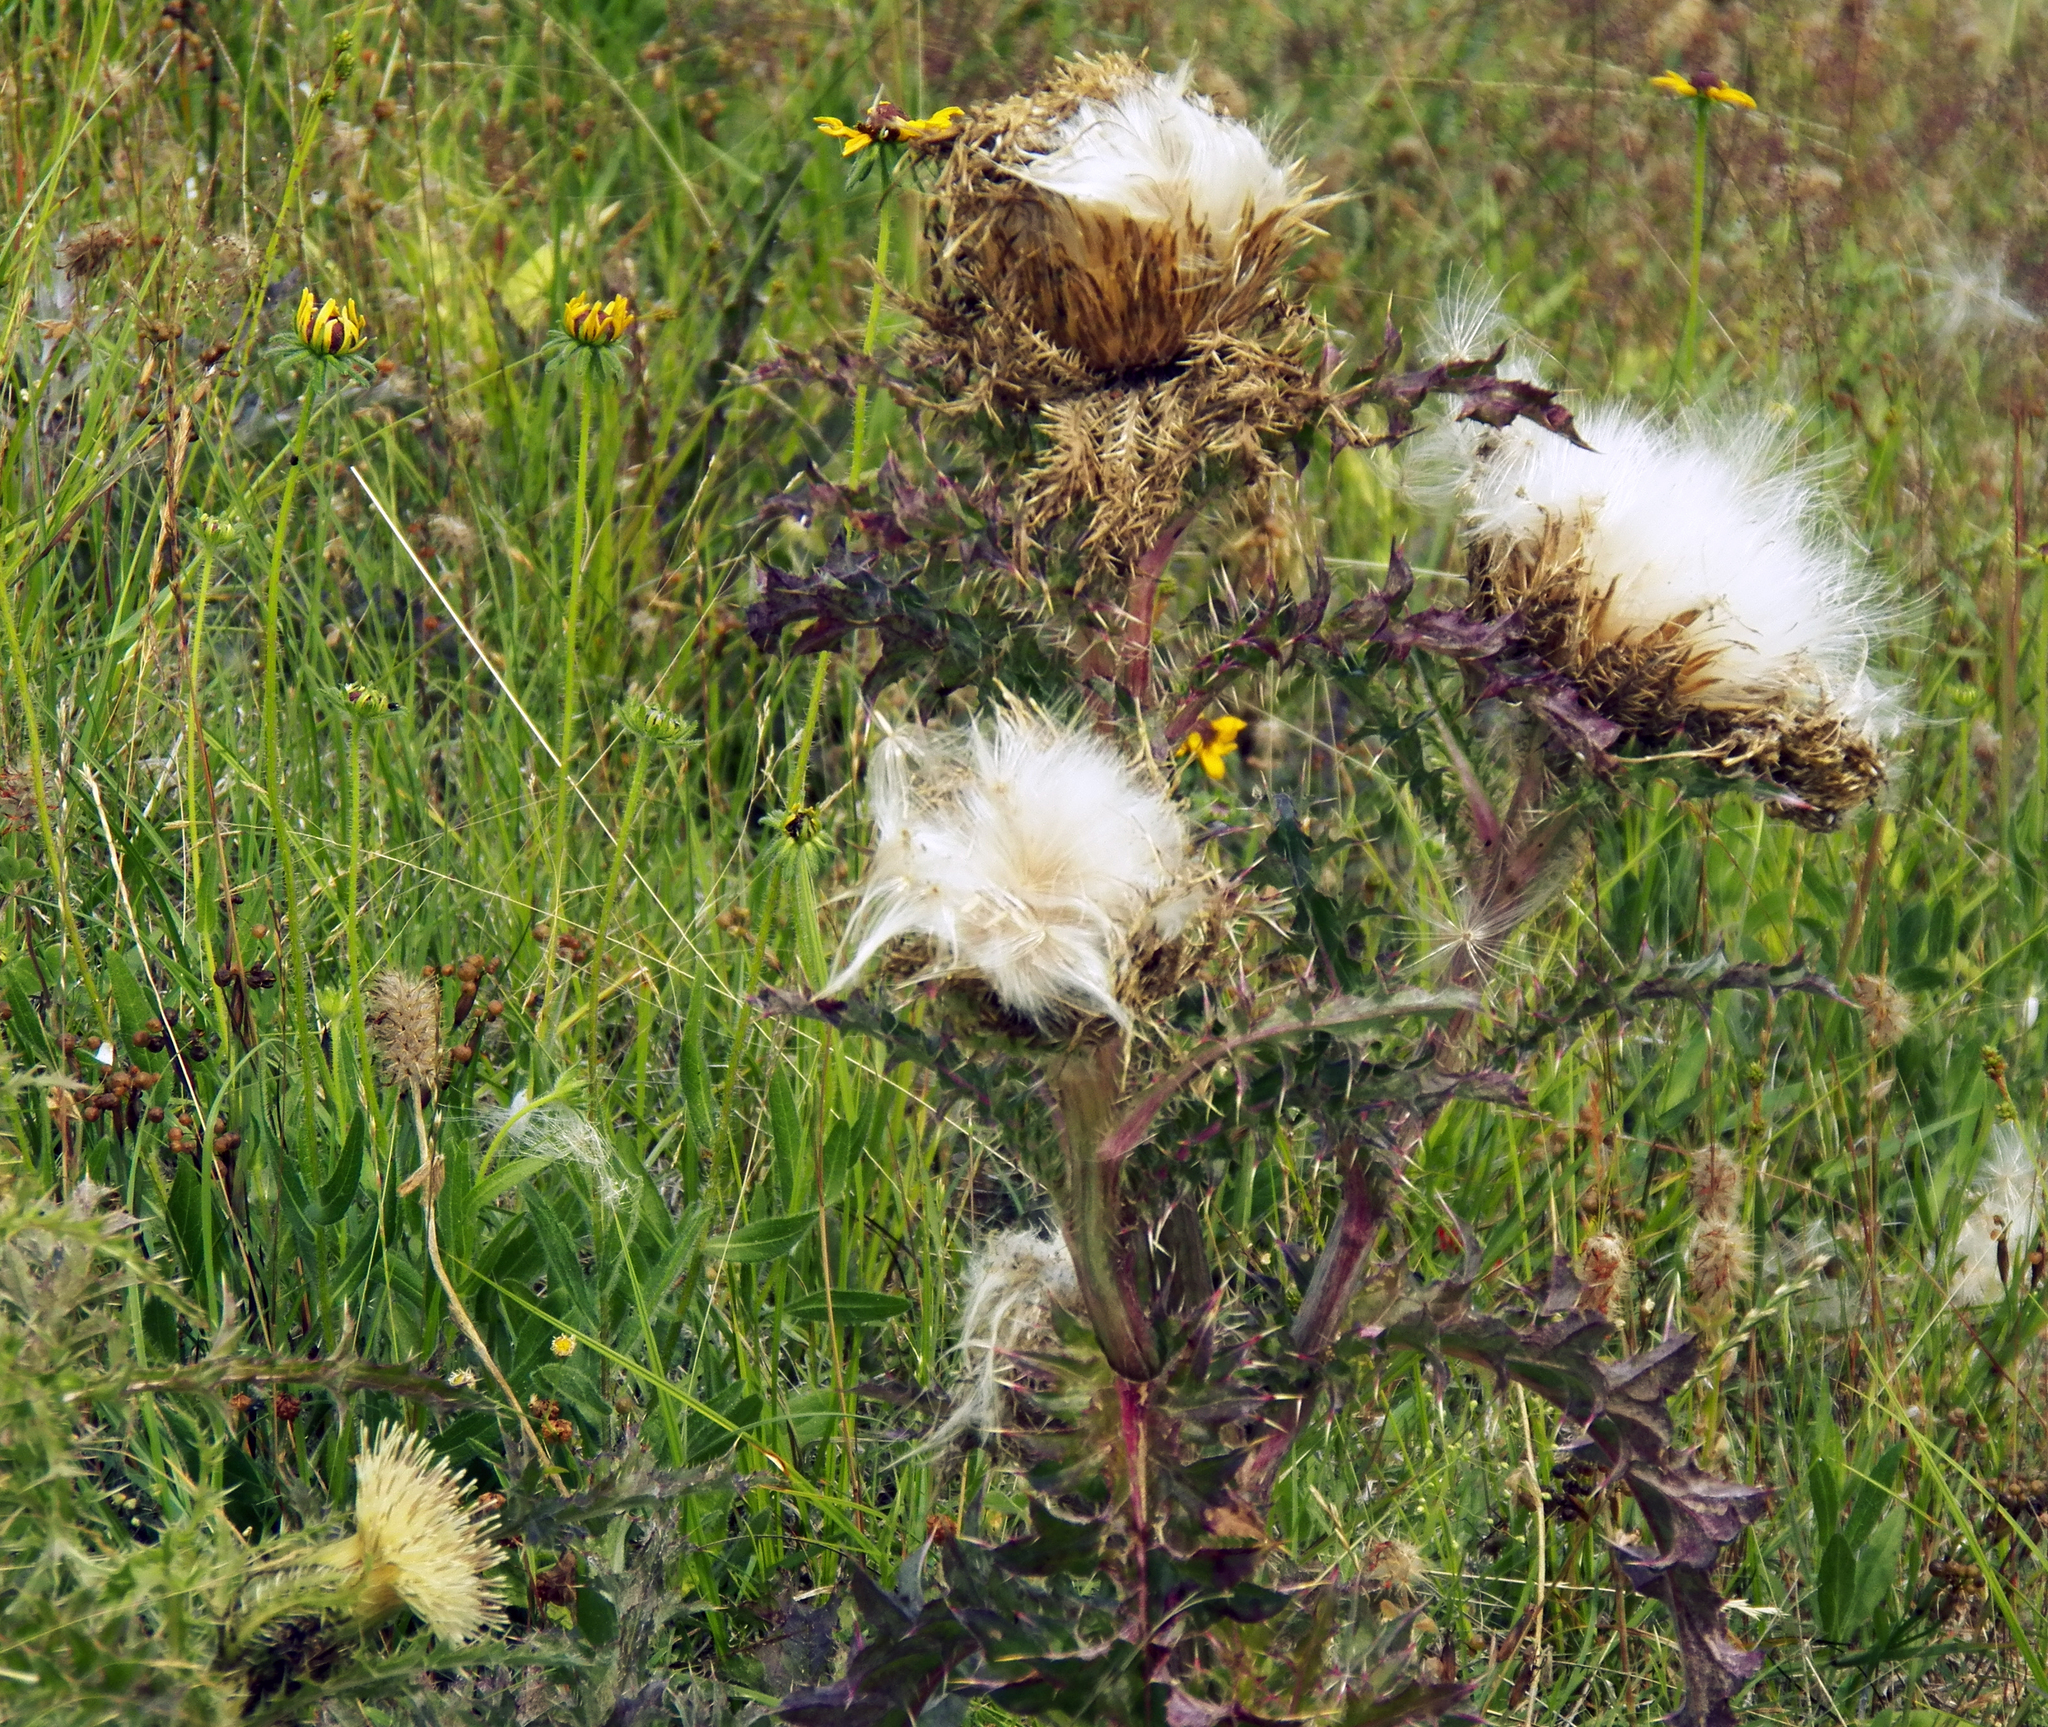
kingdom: Plantae
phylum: Tracheophyta
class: Magnoliopsida
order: Asterales
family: Asteraceae
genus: Cirsium
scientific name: Cirsium horridulum
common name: Bristly thistle
